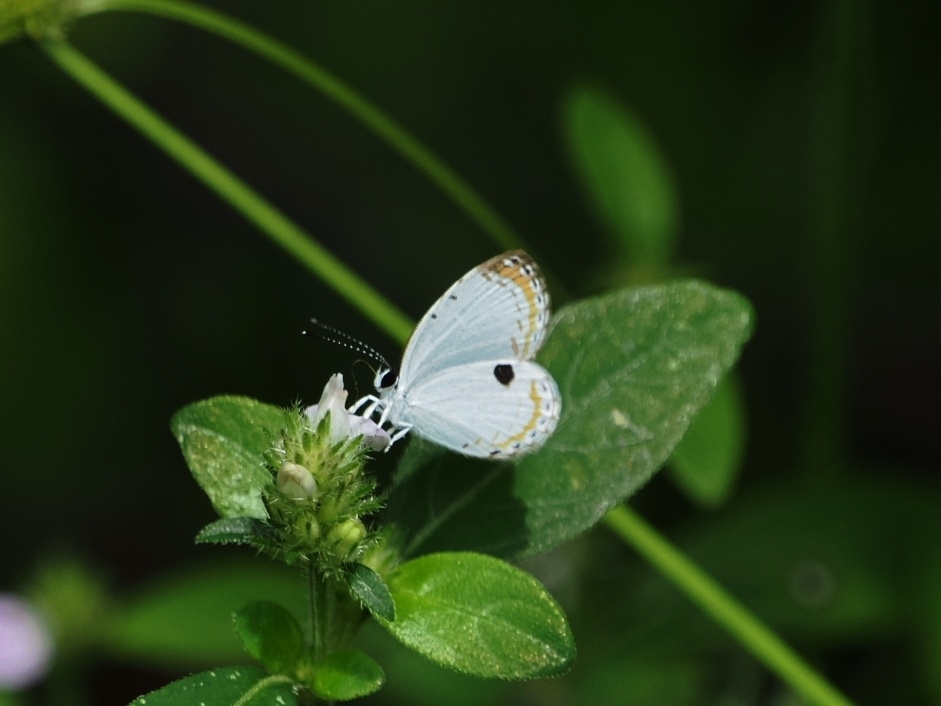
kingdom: Animalia
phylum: Arthropoda
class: Insecta
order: Lepidoptera
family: Lycaenidae
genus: Pithecops
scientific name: Pithecops corvus
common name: Forest quaker
